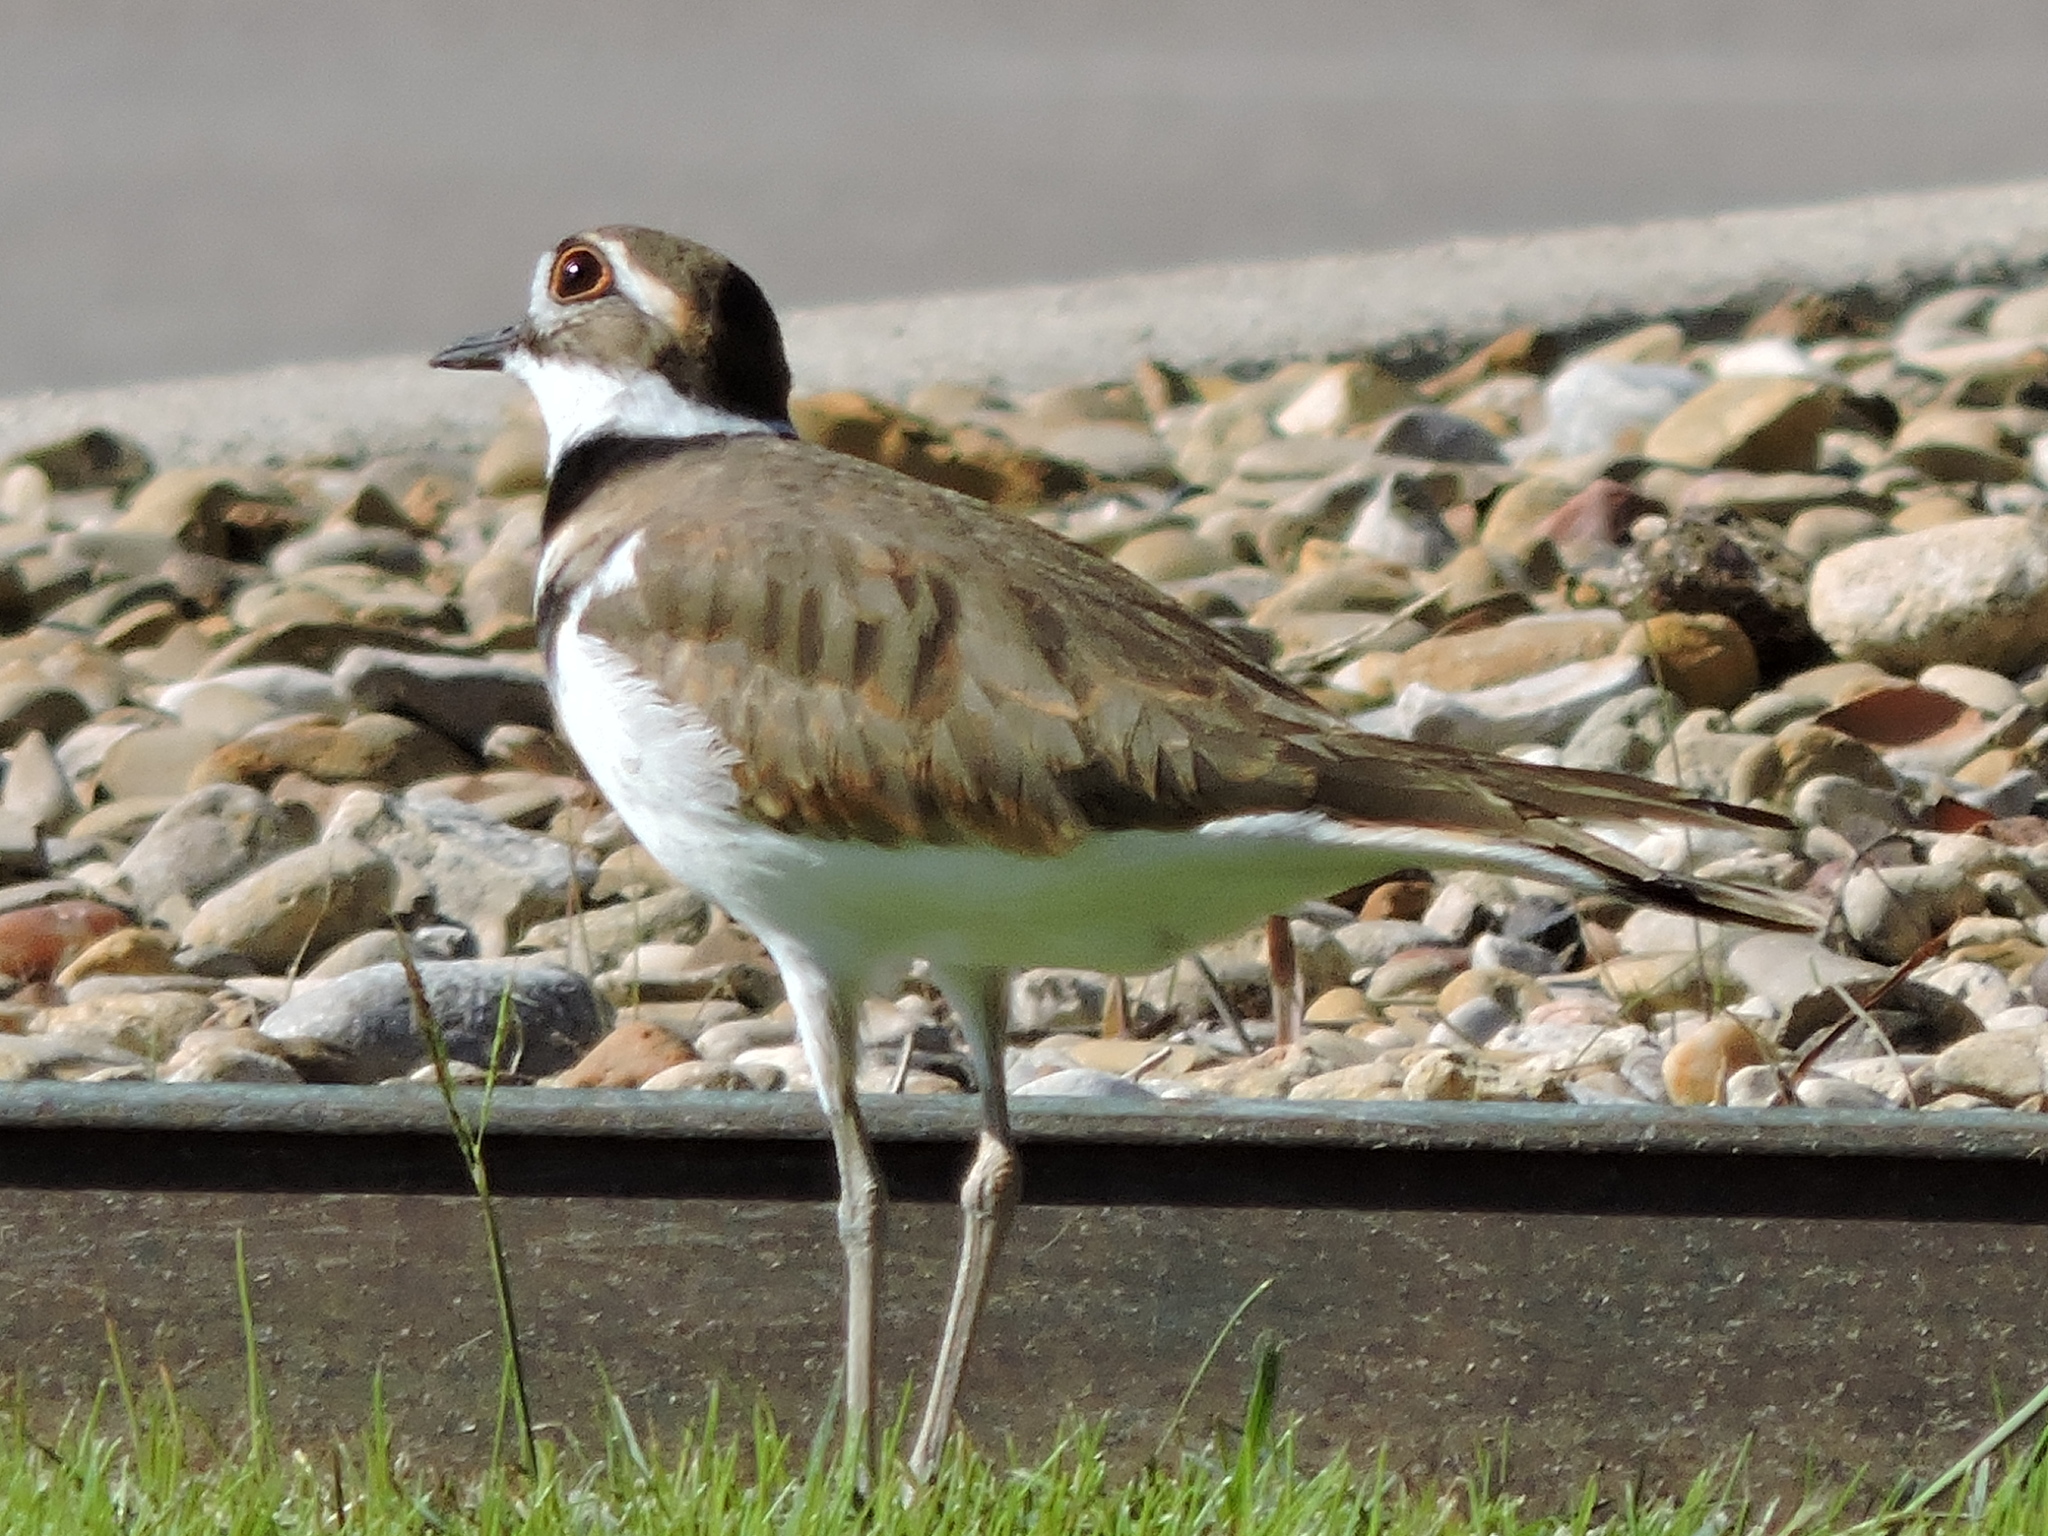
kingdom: Animalia
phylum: Chordata
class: Aves
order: Charadriiformes
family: Charadriidae
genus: Charadrius
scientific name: Charadrius vociferus
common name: Killdeer
